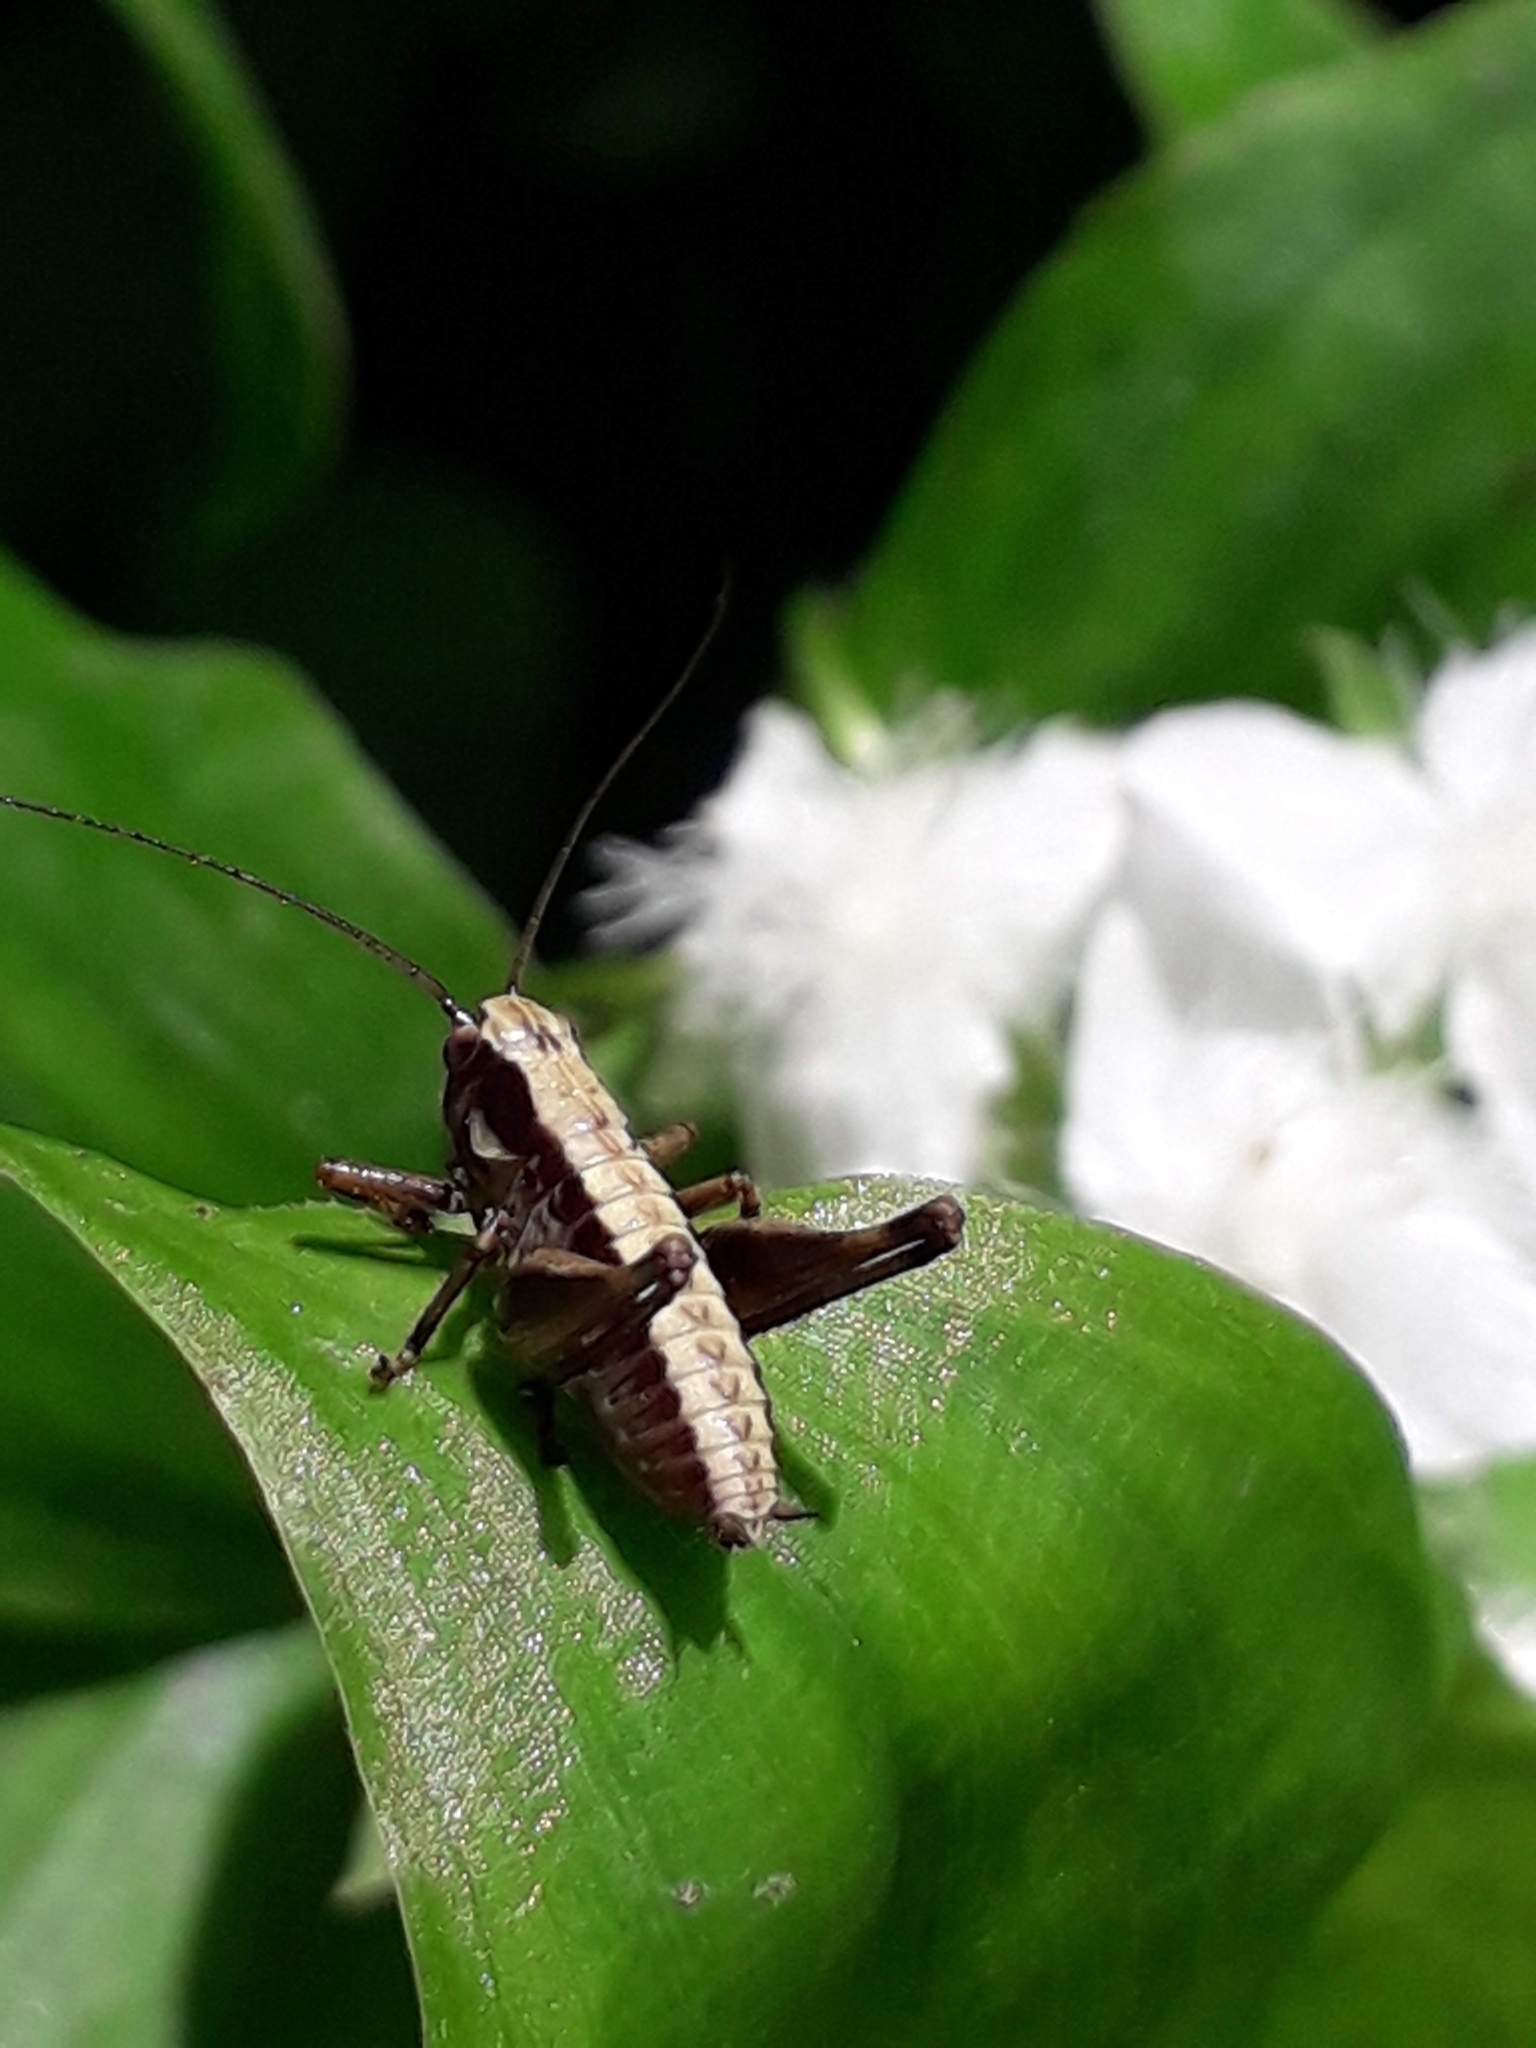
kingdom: Animalia
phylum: Arthropoda
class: Insecta
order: Orthoptera
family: Tettigoniidae
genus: Pholidoptera
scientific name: Pholidoptera griseoaptera
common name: Dark bush-cricket
